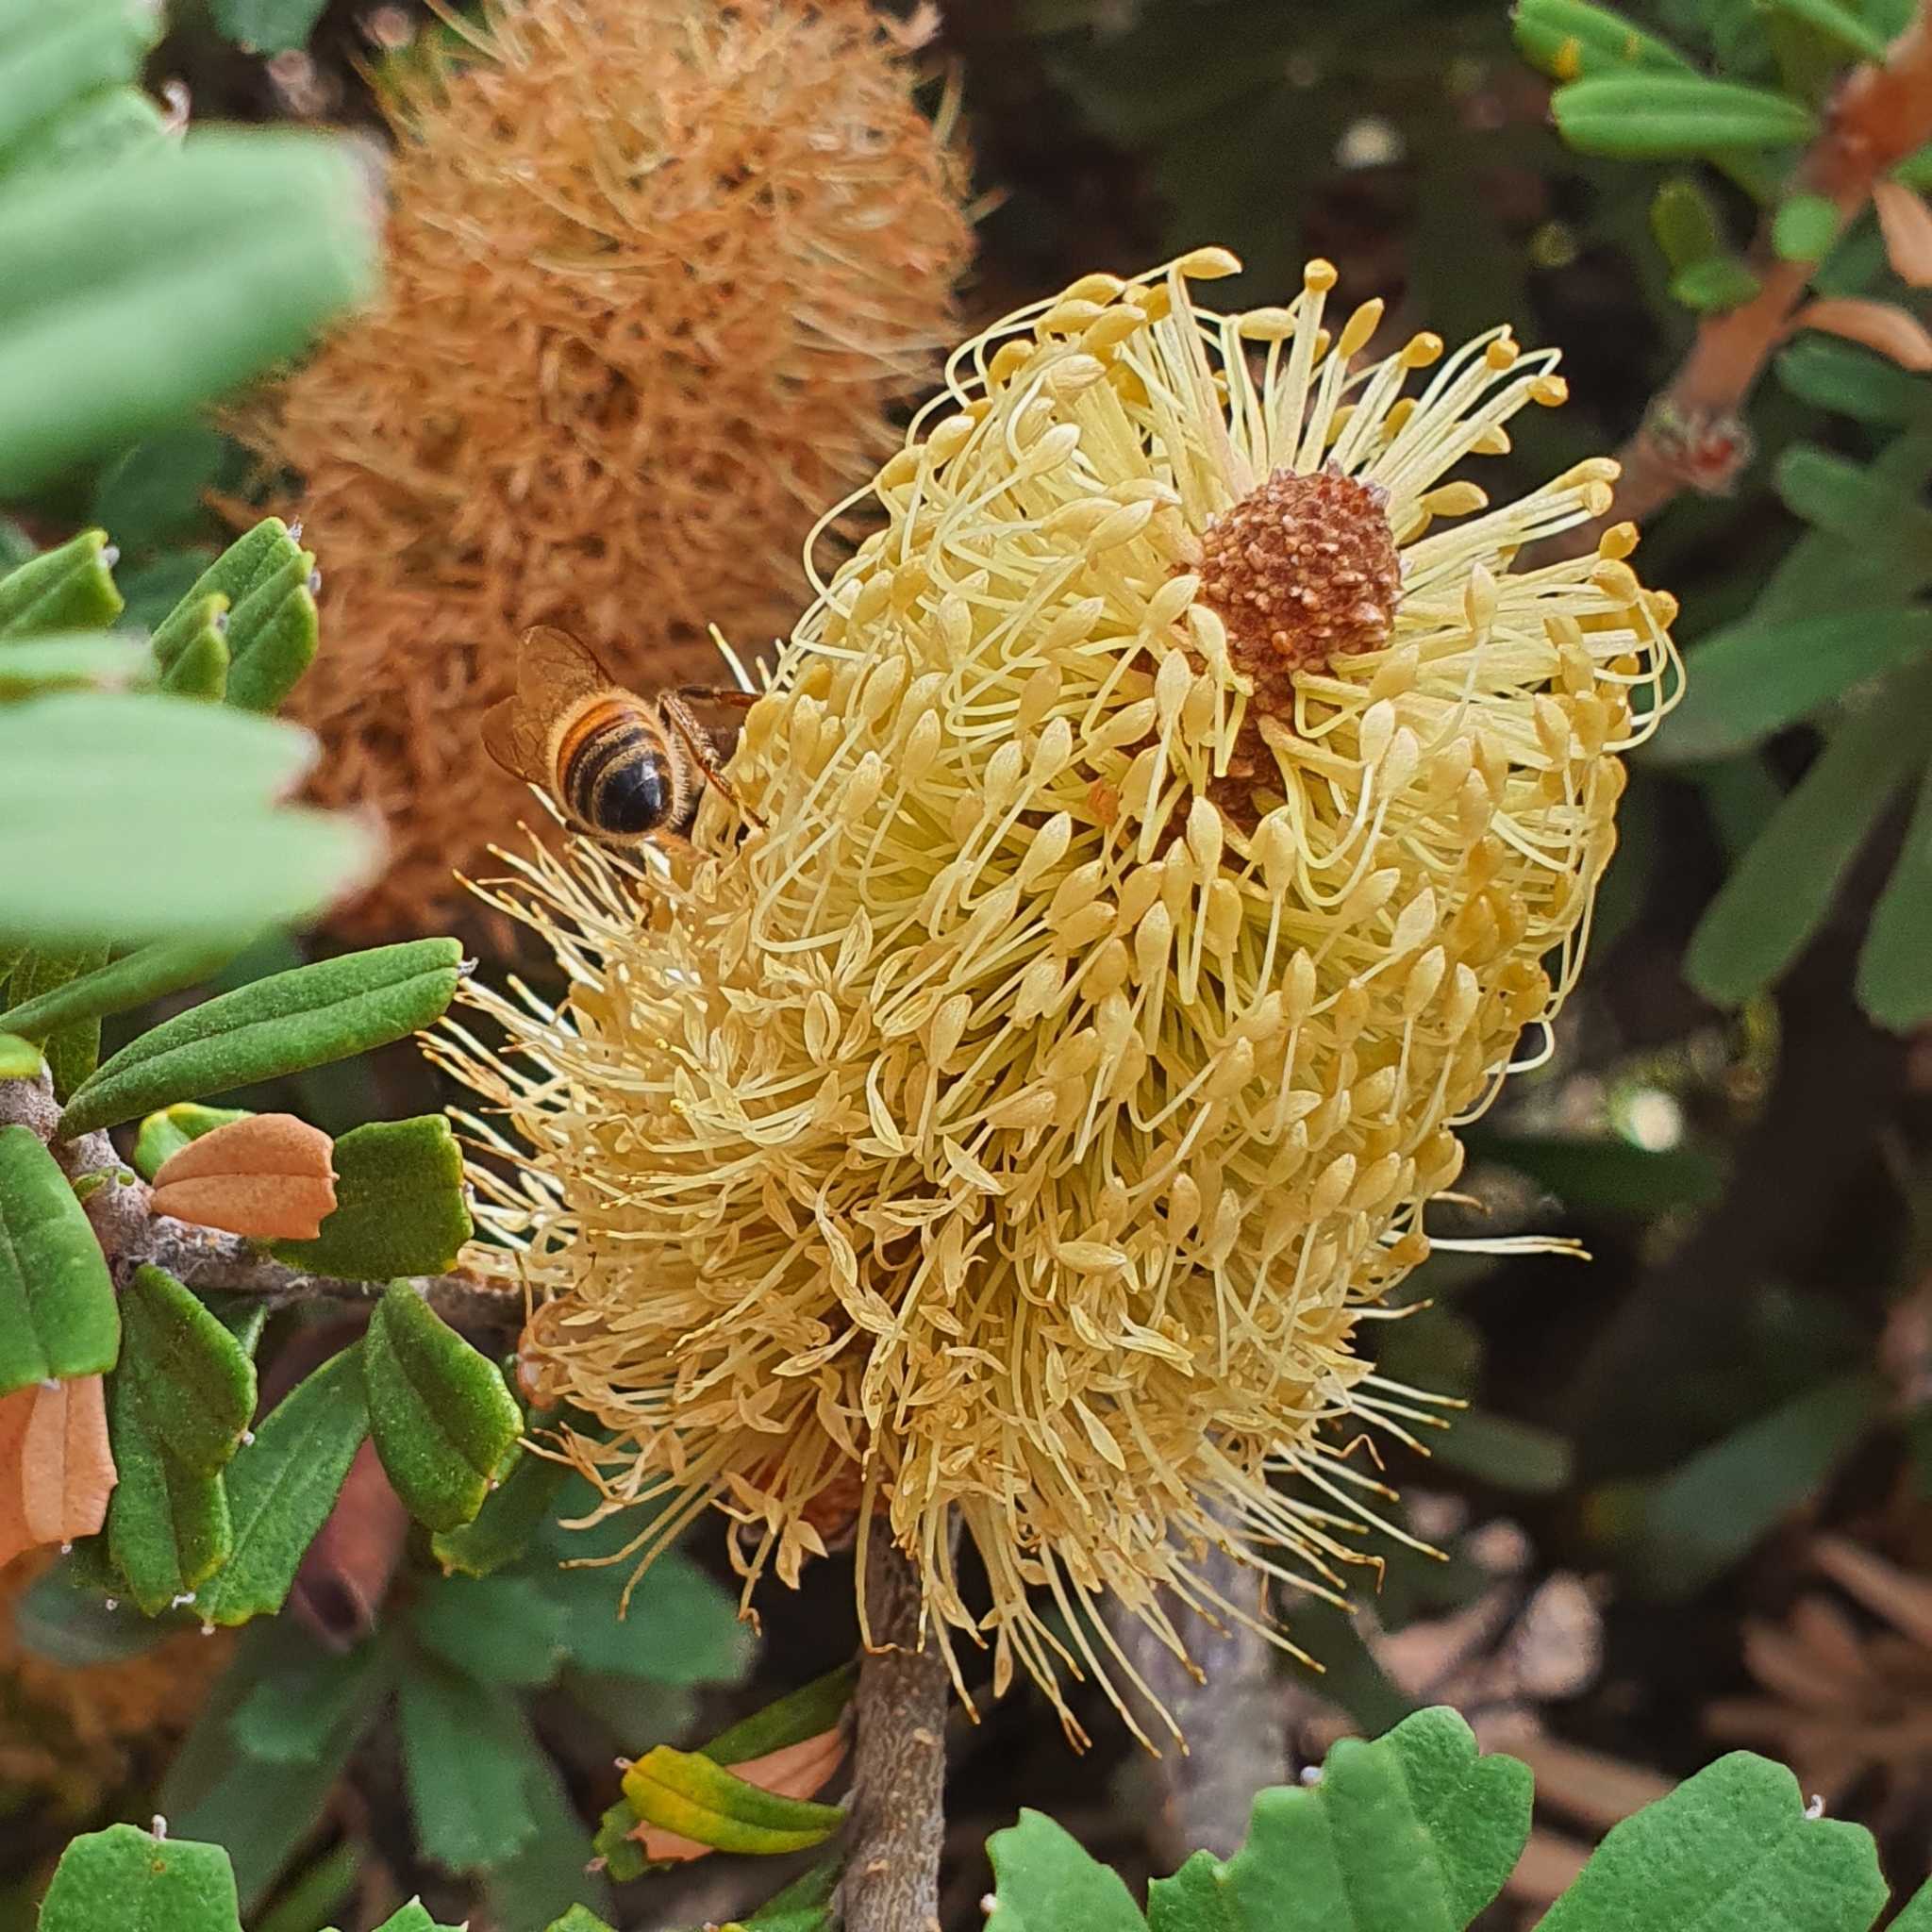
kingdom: Animalia
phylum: Arthropoda
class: Insecta
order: Hymenoptera
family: Apidae
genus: Apis
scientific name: Apis mellifera
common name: Honey bee
